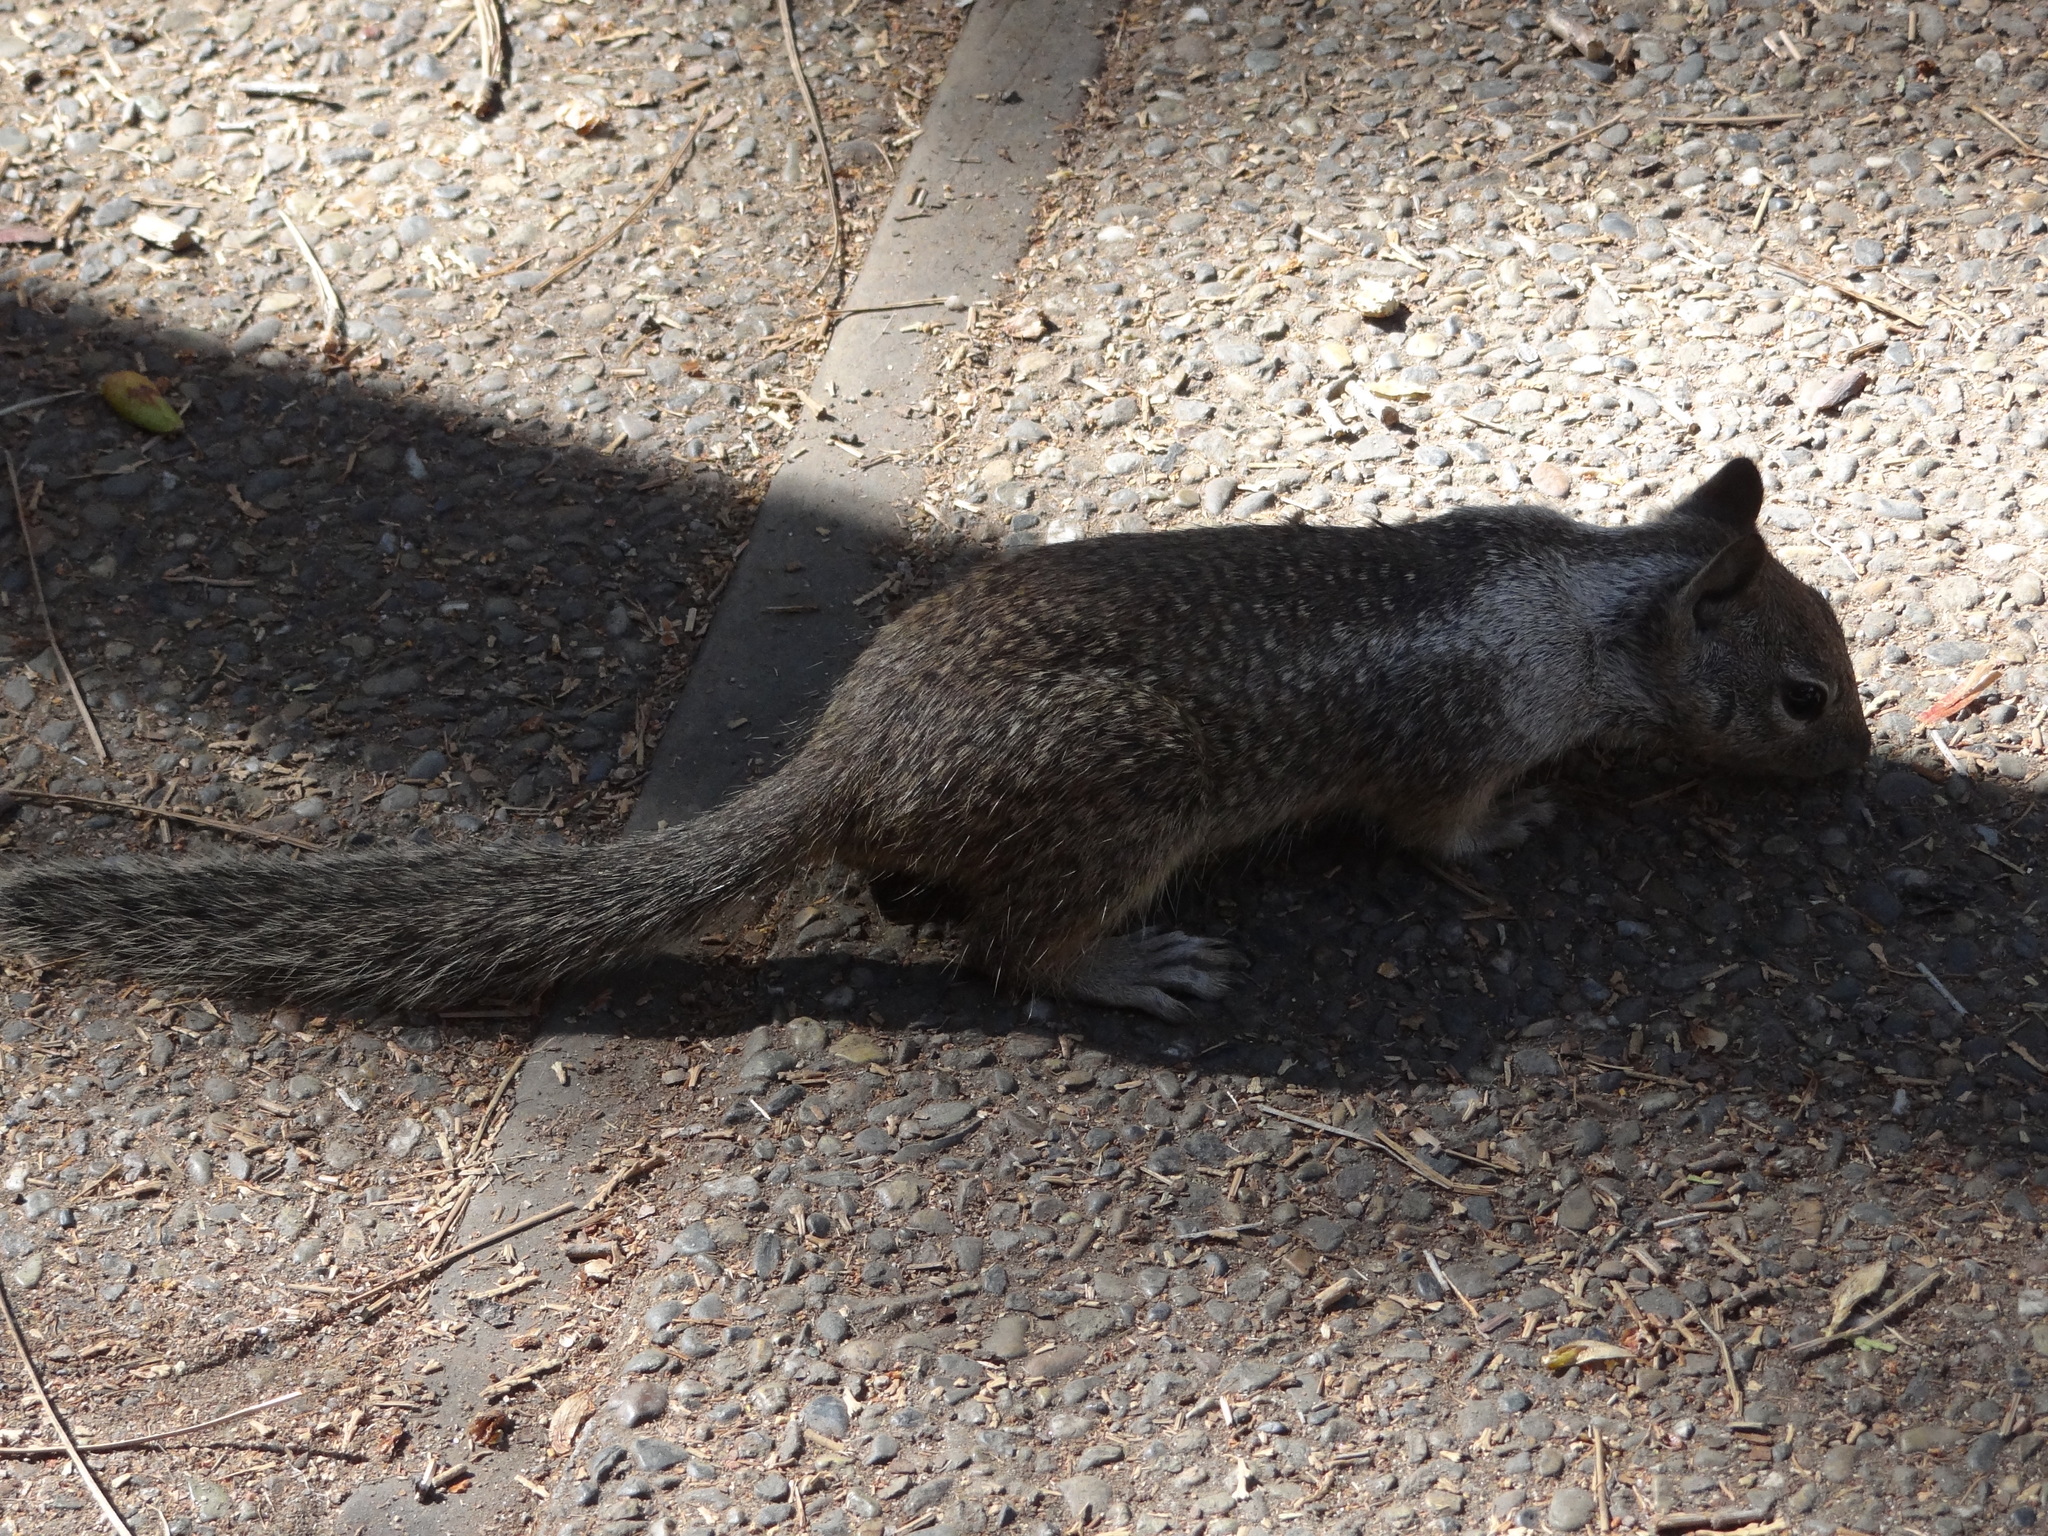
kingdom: Animalia
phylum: Chordata
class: Mammalia
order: Rodentia
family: Sciuridae
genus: Otospermophilus
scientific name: Otospermophilus beecheyi
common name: California ground squirrel
